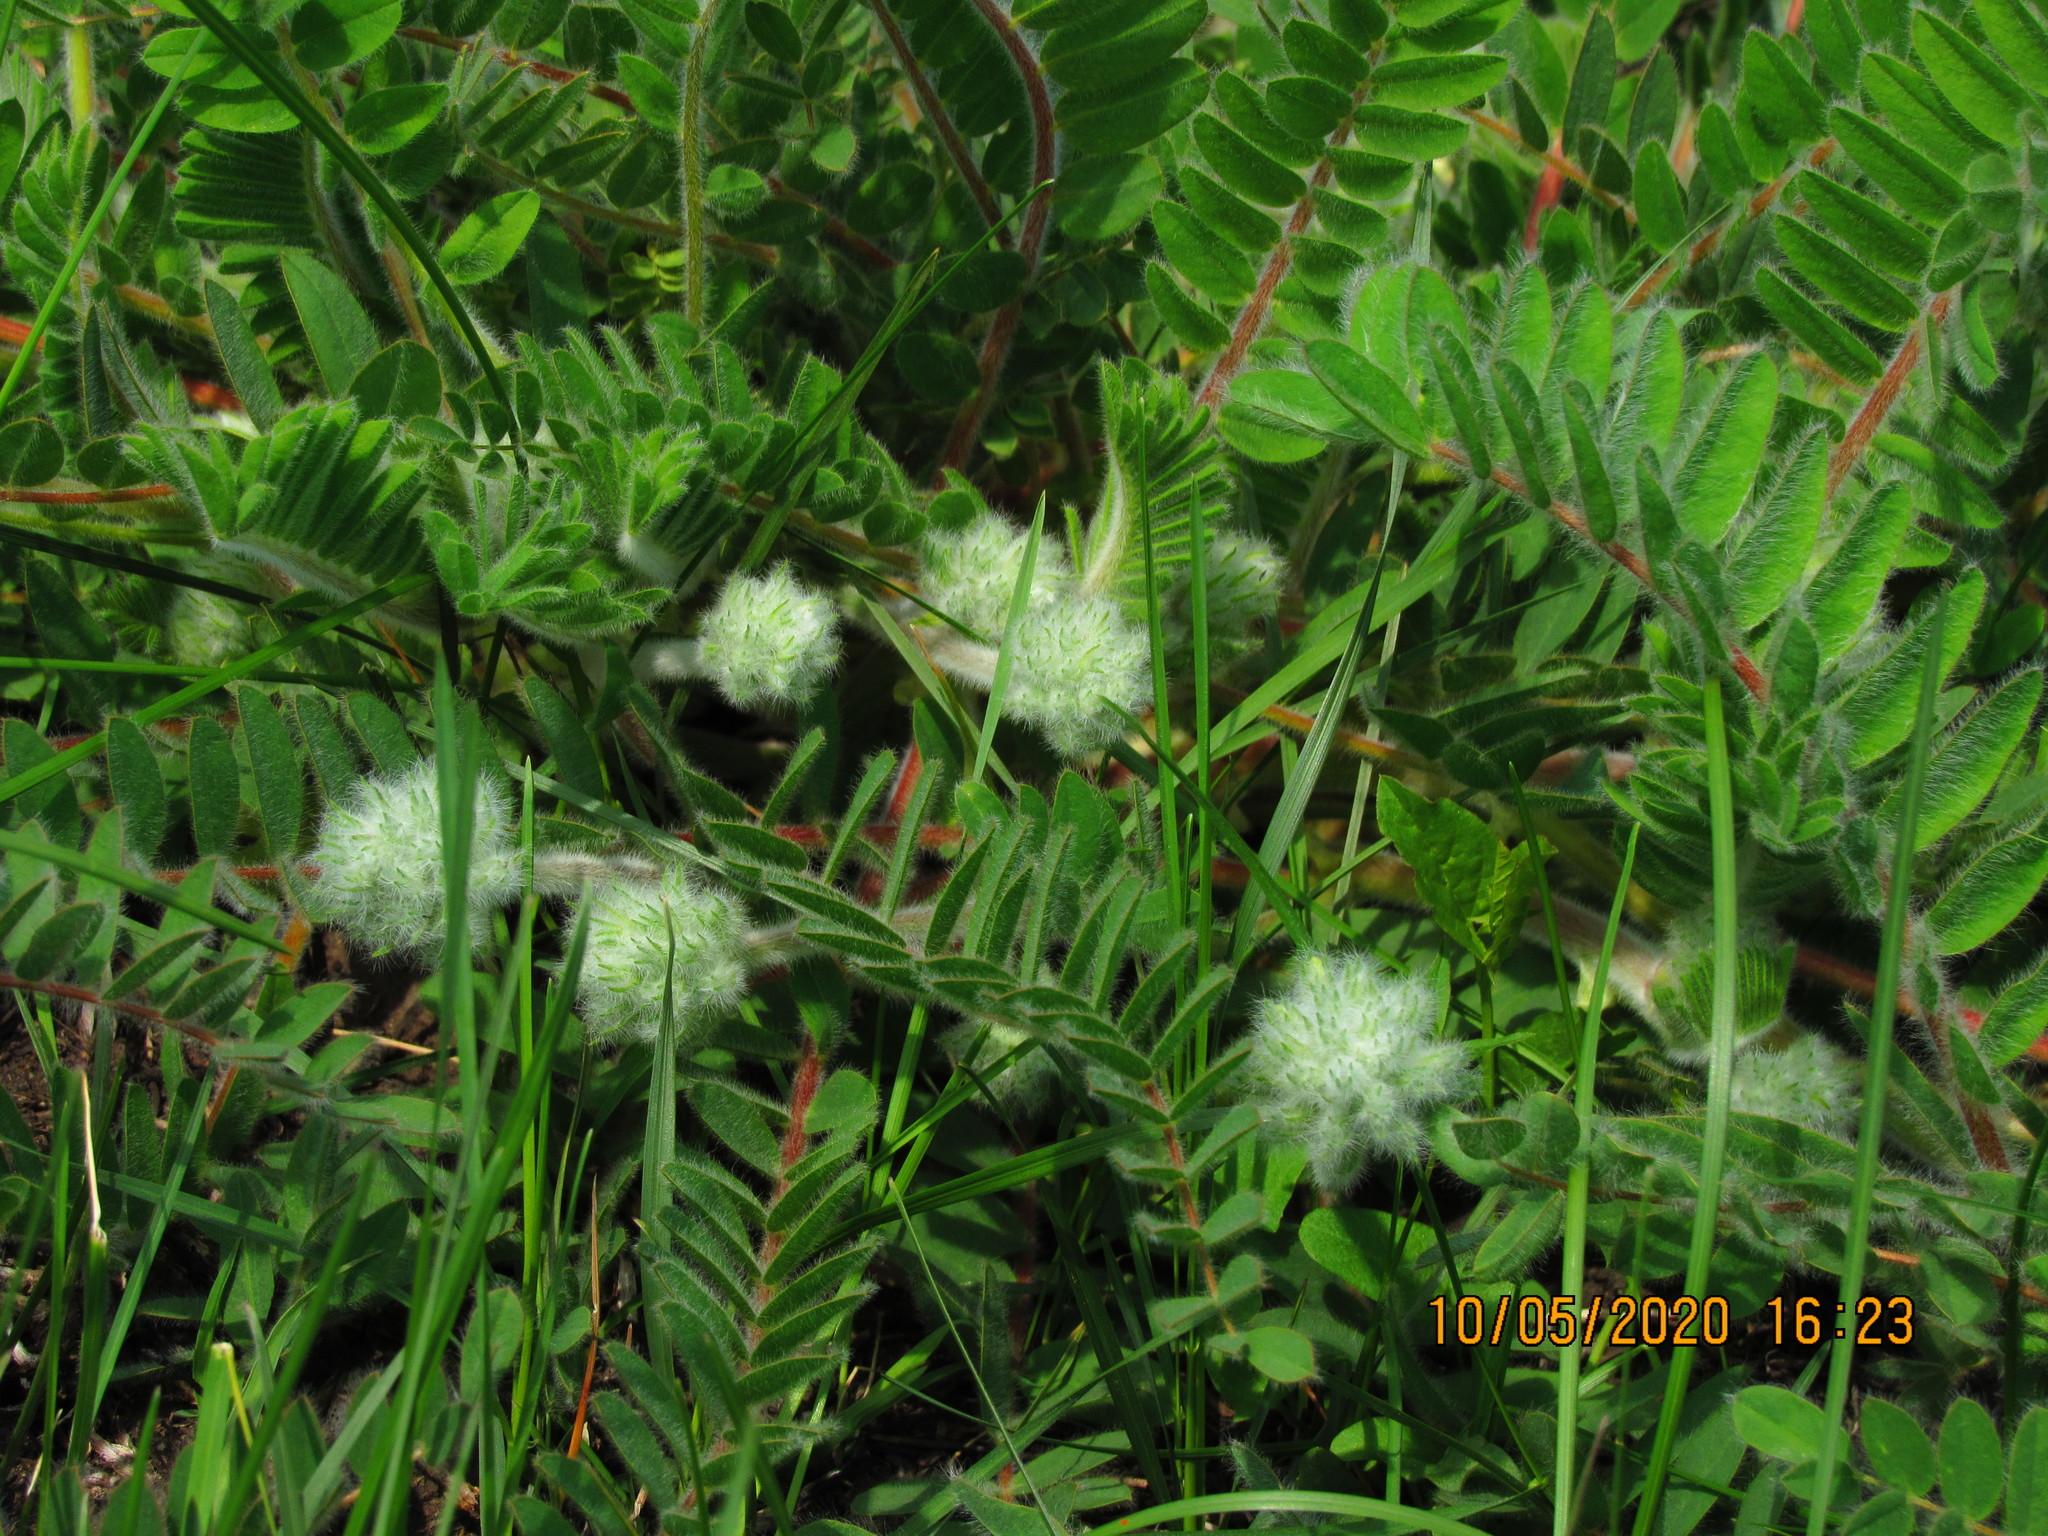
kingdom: Plantae
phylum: Tracheophyta
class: Magnoliopsida
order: Fabales
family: Fabaceae
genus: Astragalus
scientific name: Astragalus dasyanthus
